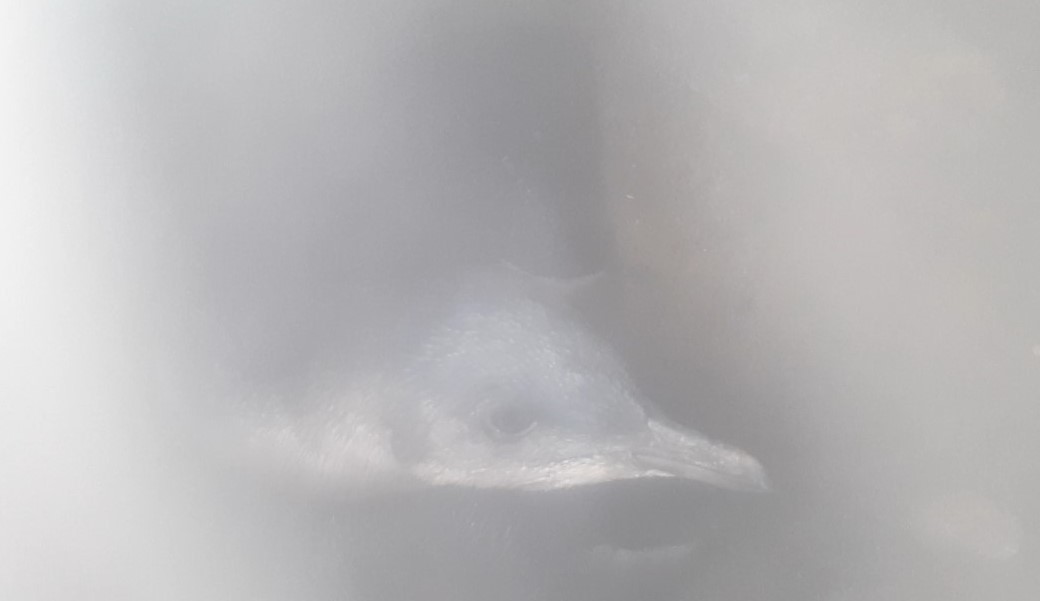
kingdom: Animalia
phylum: Chordata
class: Aves
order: Sphenisciformes
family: Spheniscidae
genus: Eudyptula
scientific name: Eudyptula minor
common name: Little penguin
